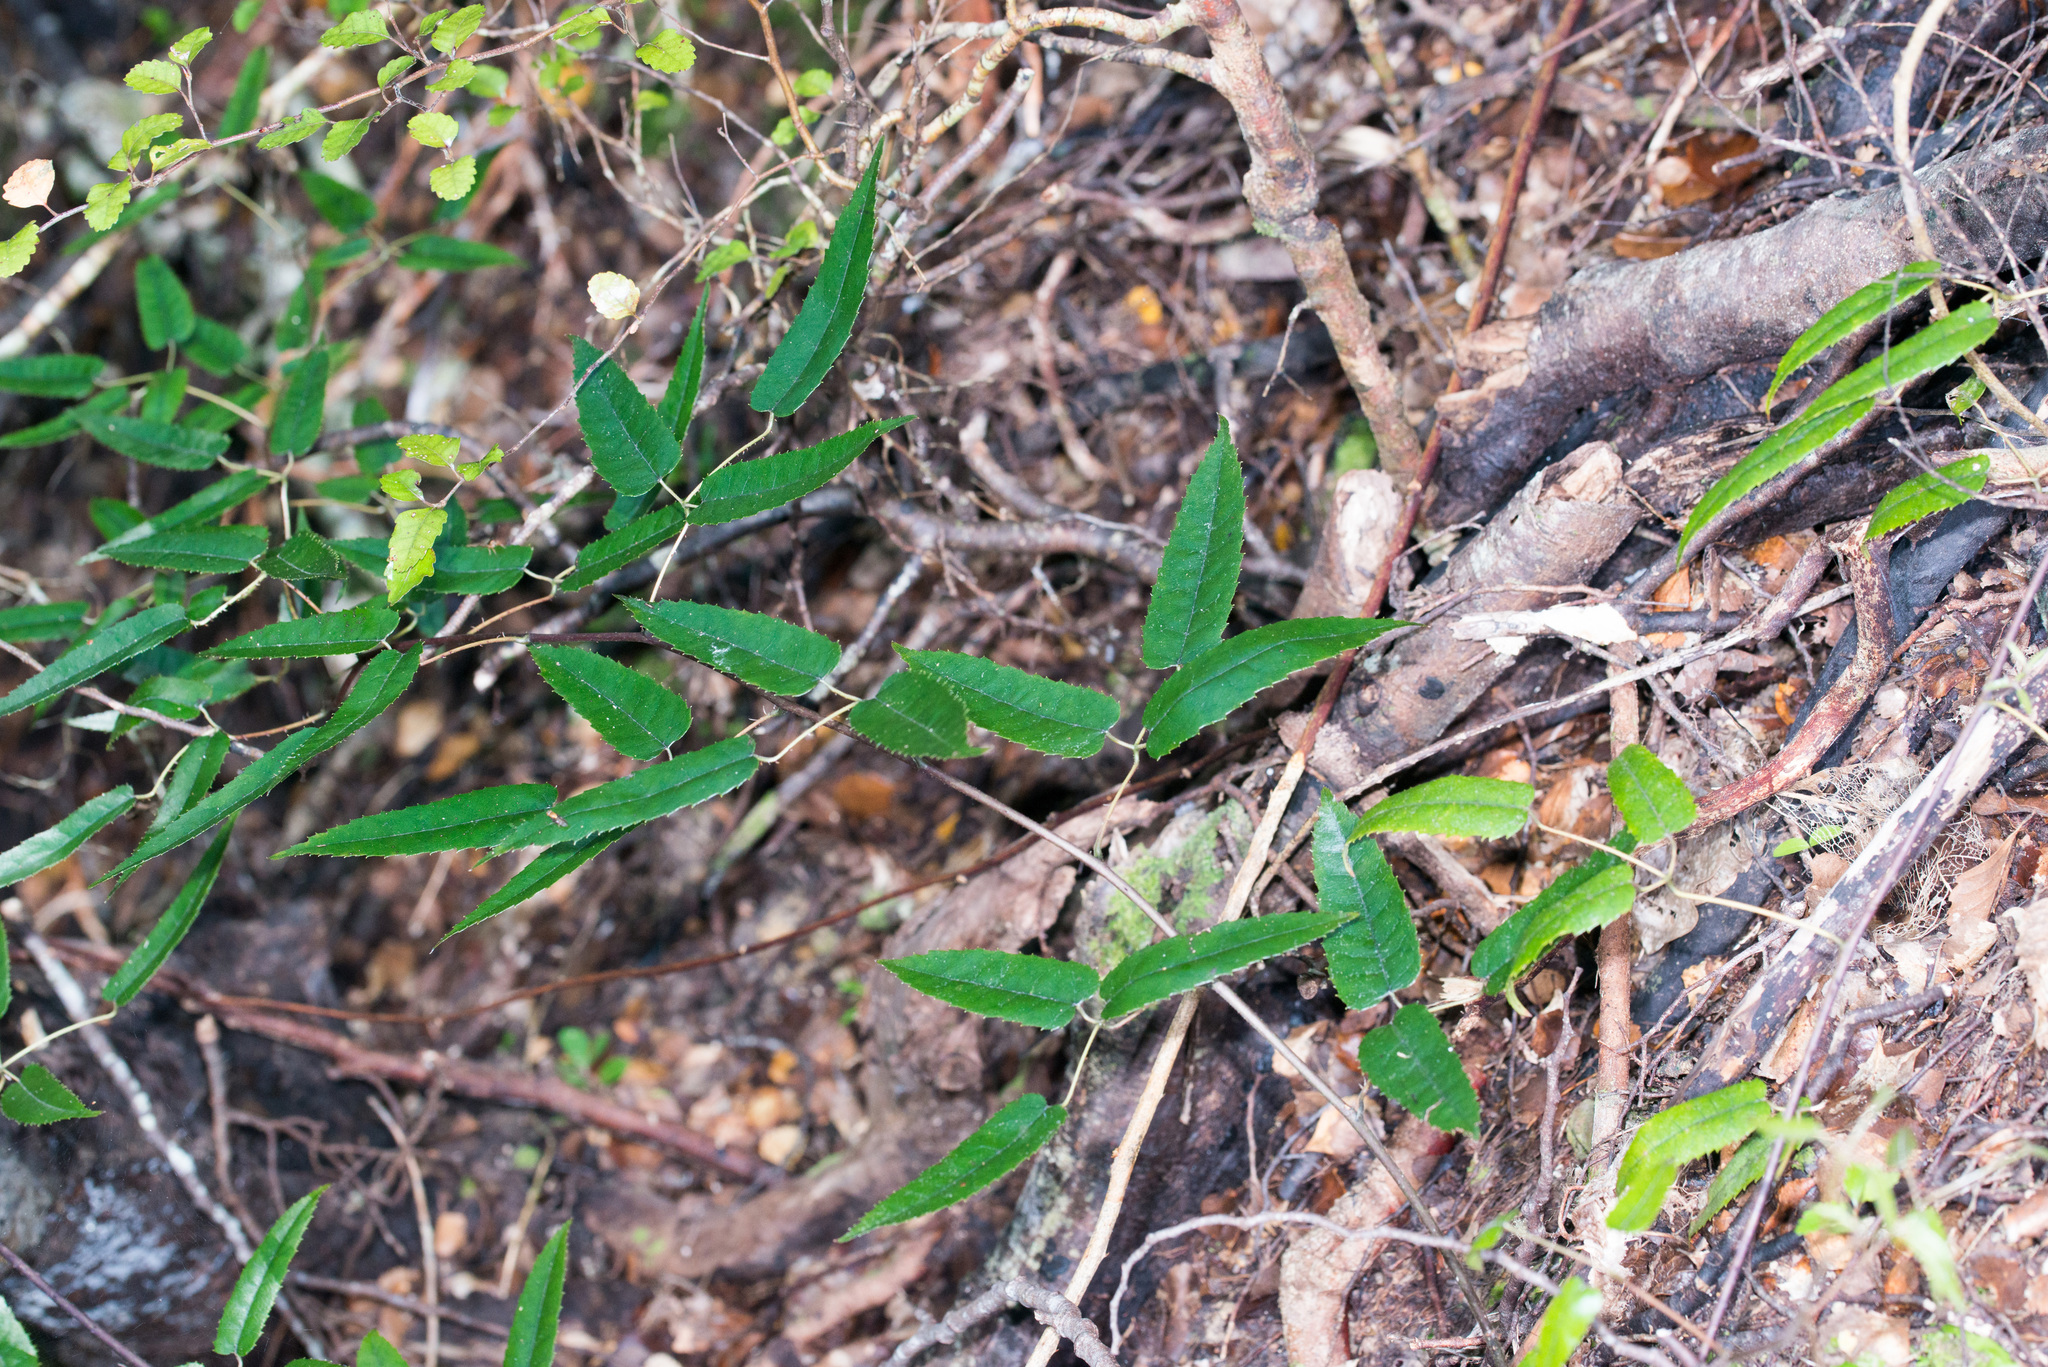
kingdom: Plantae
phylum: Tracheophyta
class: Magnoliopsida
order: Rosales
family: Rosaceae
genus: Rubus
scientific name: Rubus cissoides
